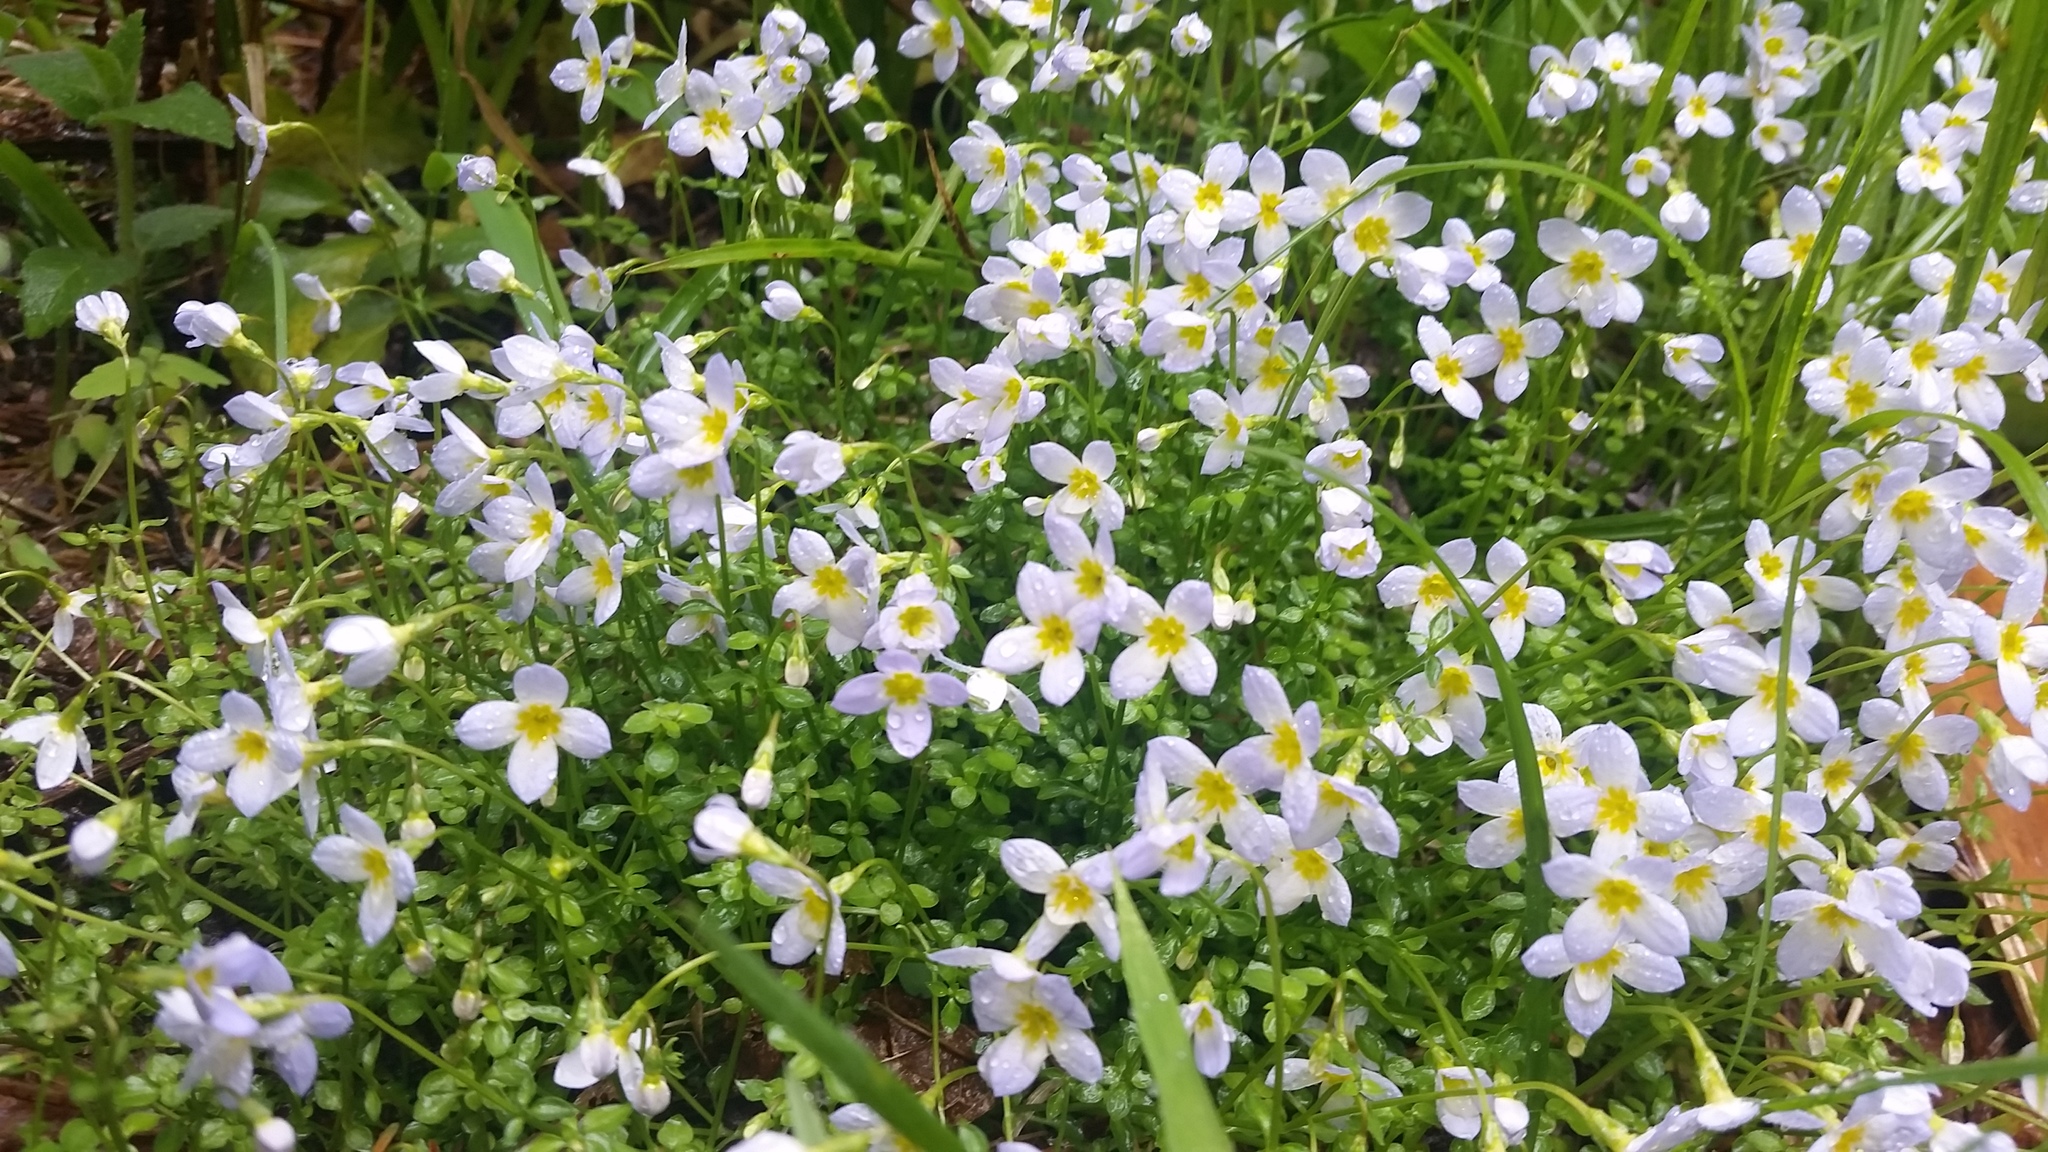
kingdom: Plantae
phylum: Tracheophyta
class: Magnoliopsida
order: Gentianales
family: Rubiaceae
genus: Houstonia
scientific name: Houstonia serpyllifolia
